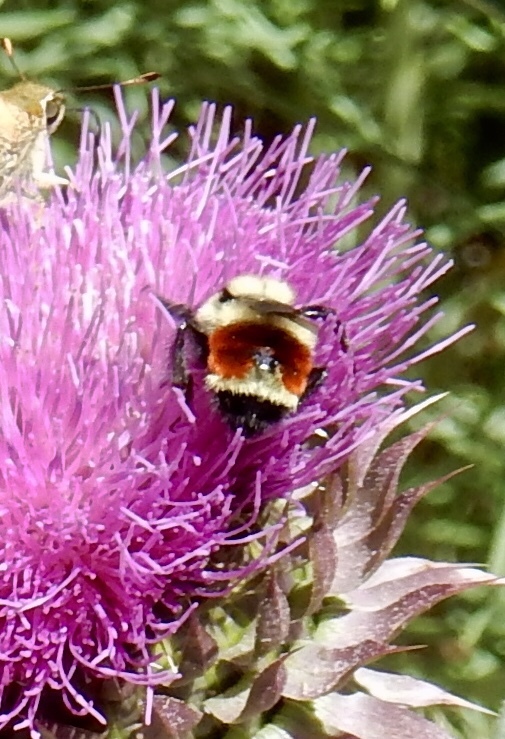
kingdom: Animalia
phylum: Arthropoda
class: Insecta
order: Hymenoptera
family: Apidae
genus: Bombus
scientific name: Bombus huntii
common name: Hunt bumble bee
